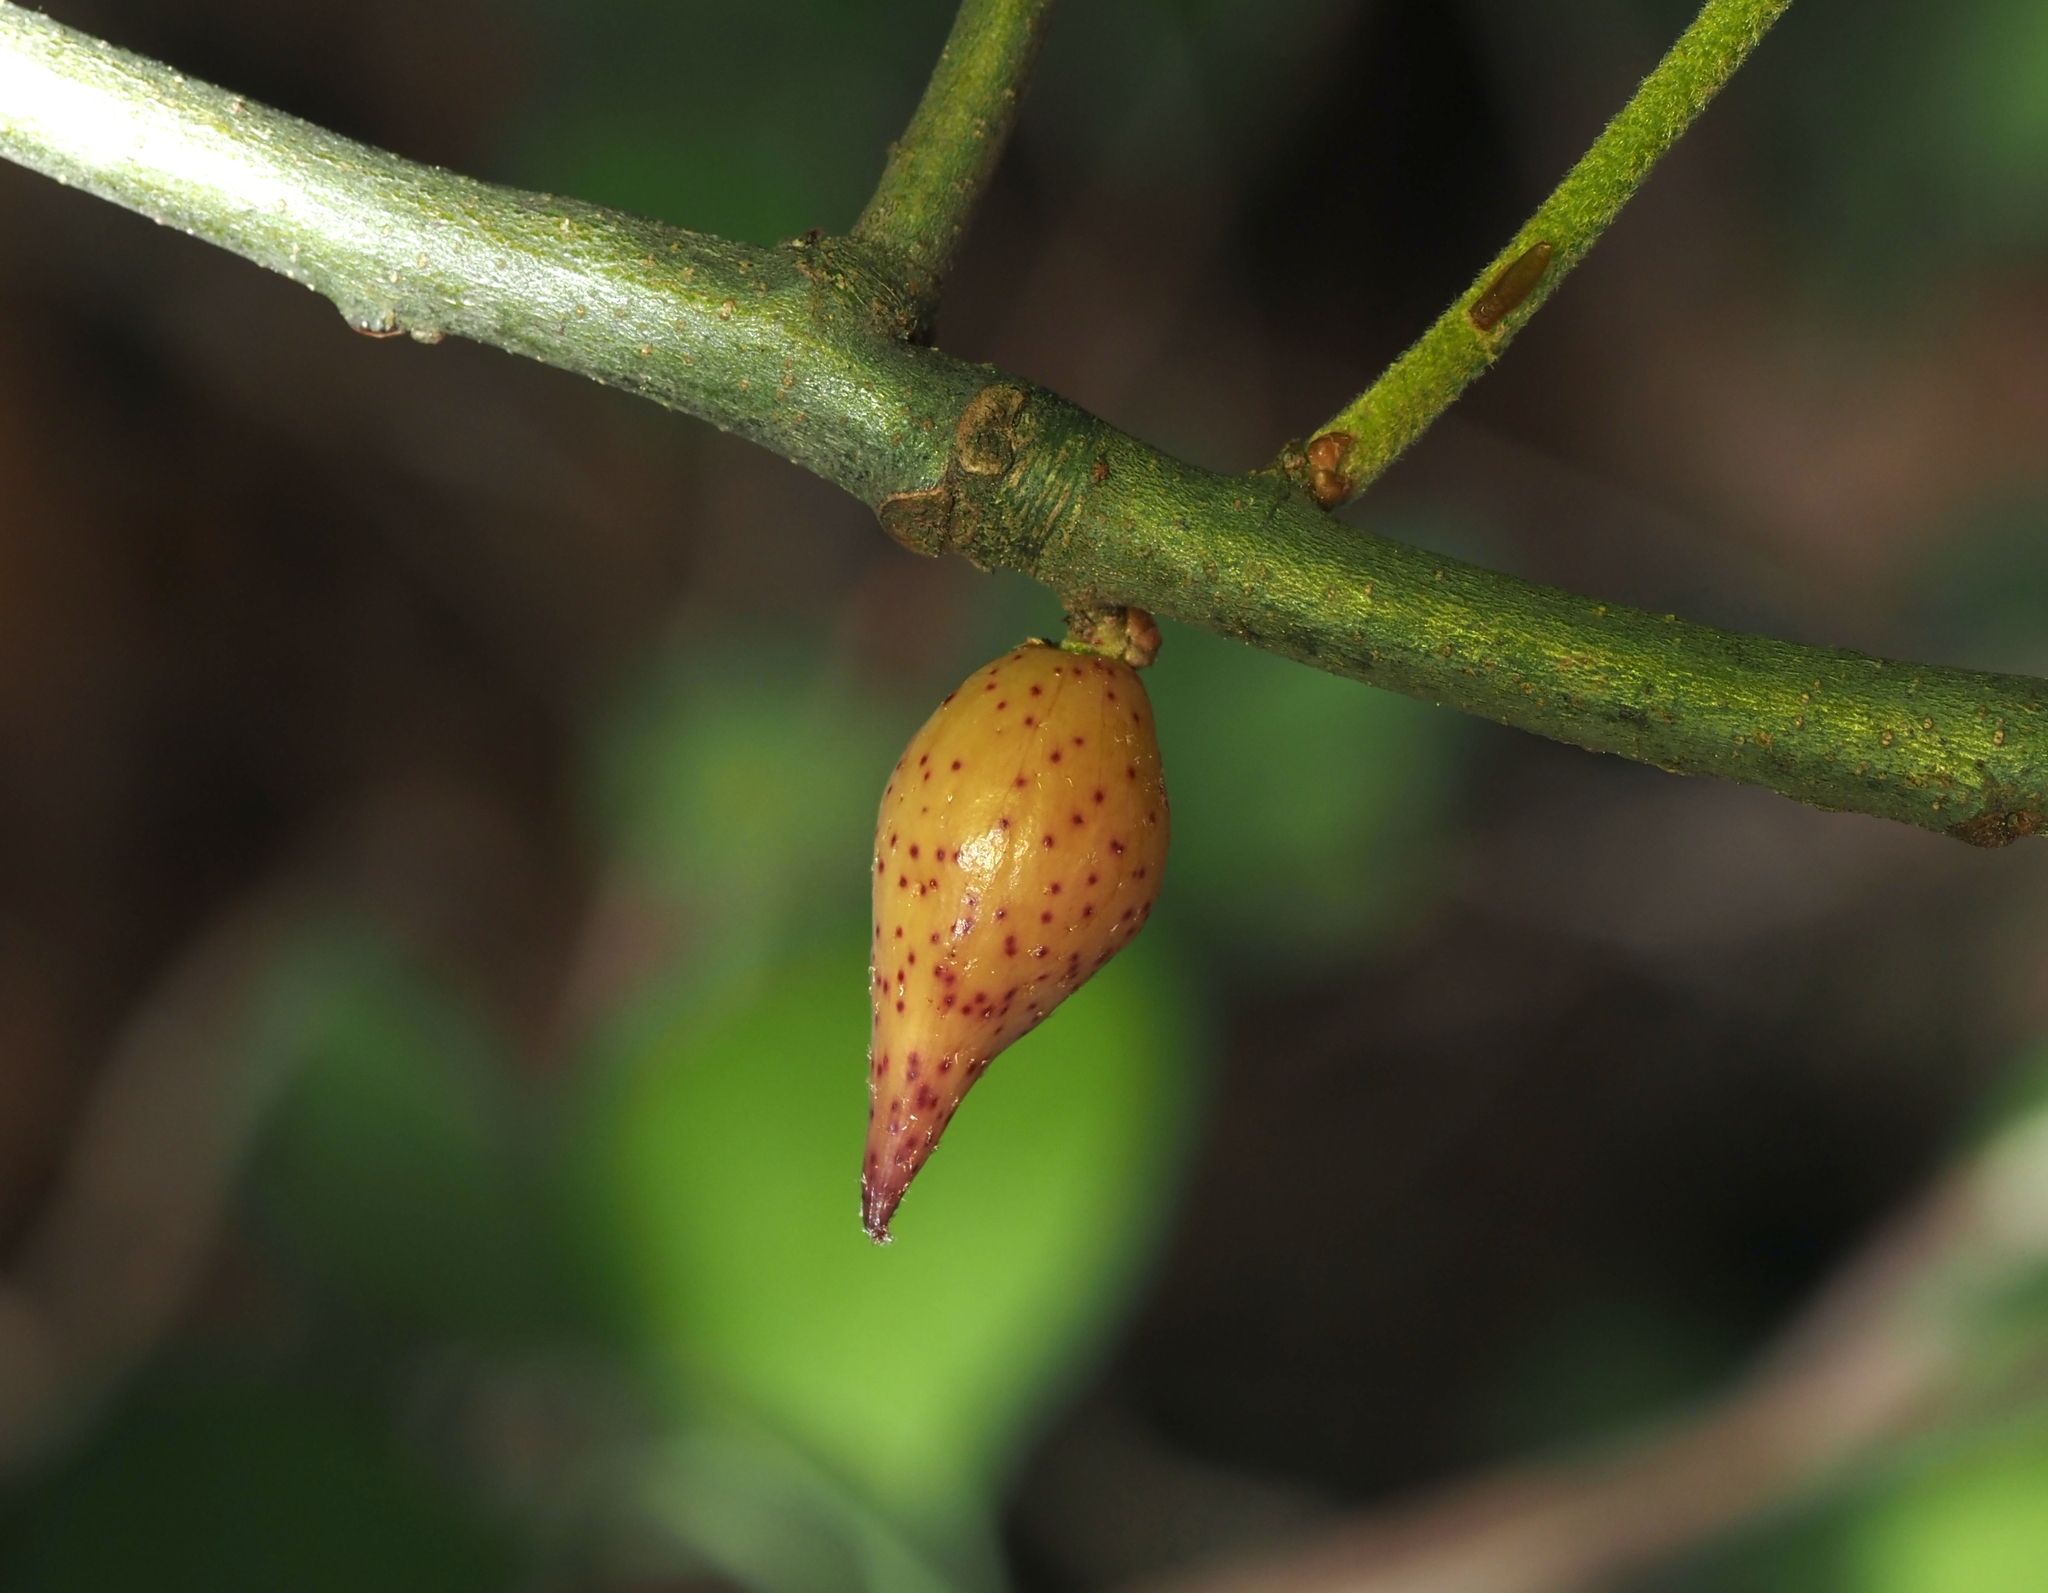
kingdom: Animalia
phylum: Arthropoda
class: Insecta
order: Hymenoptera
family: Cynipidae
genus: Amphibolips
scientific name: Amphibolips
